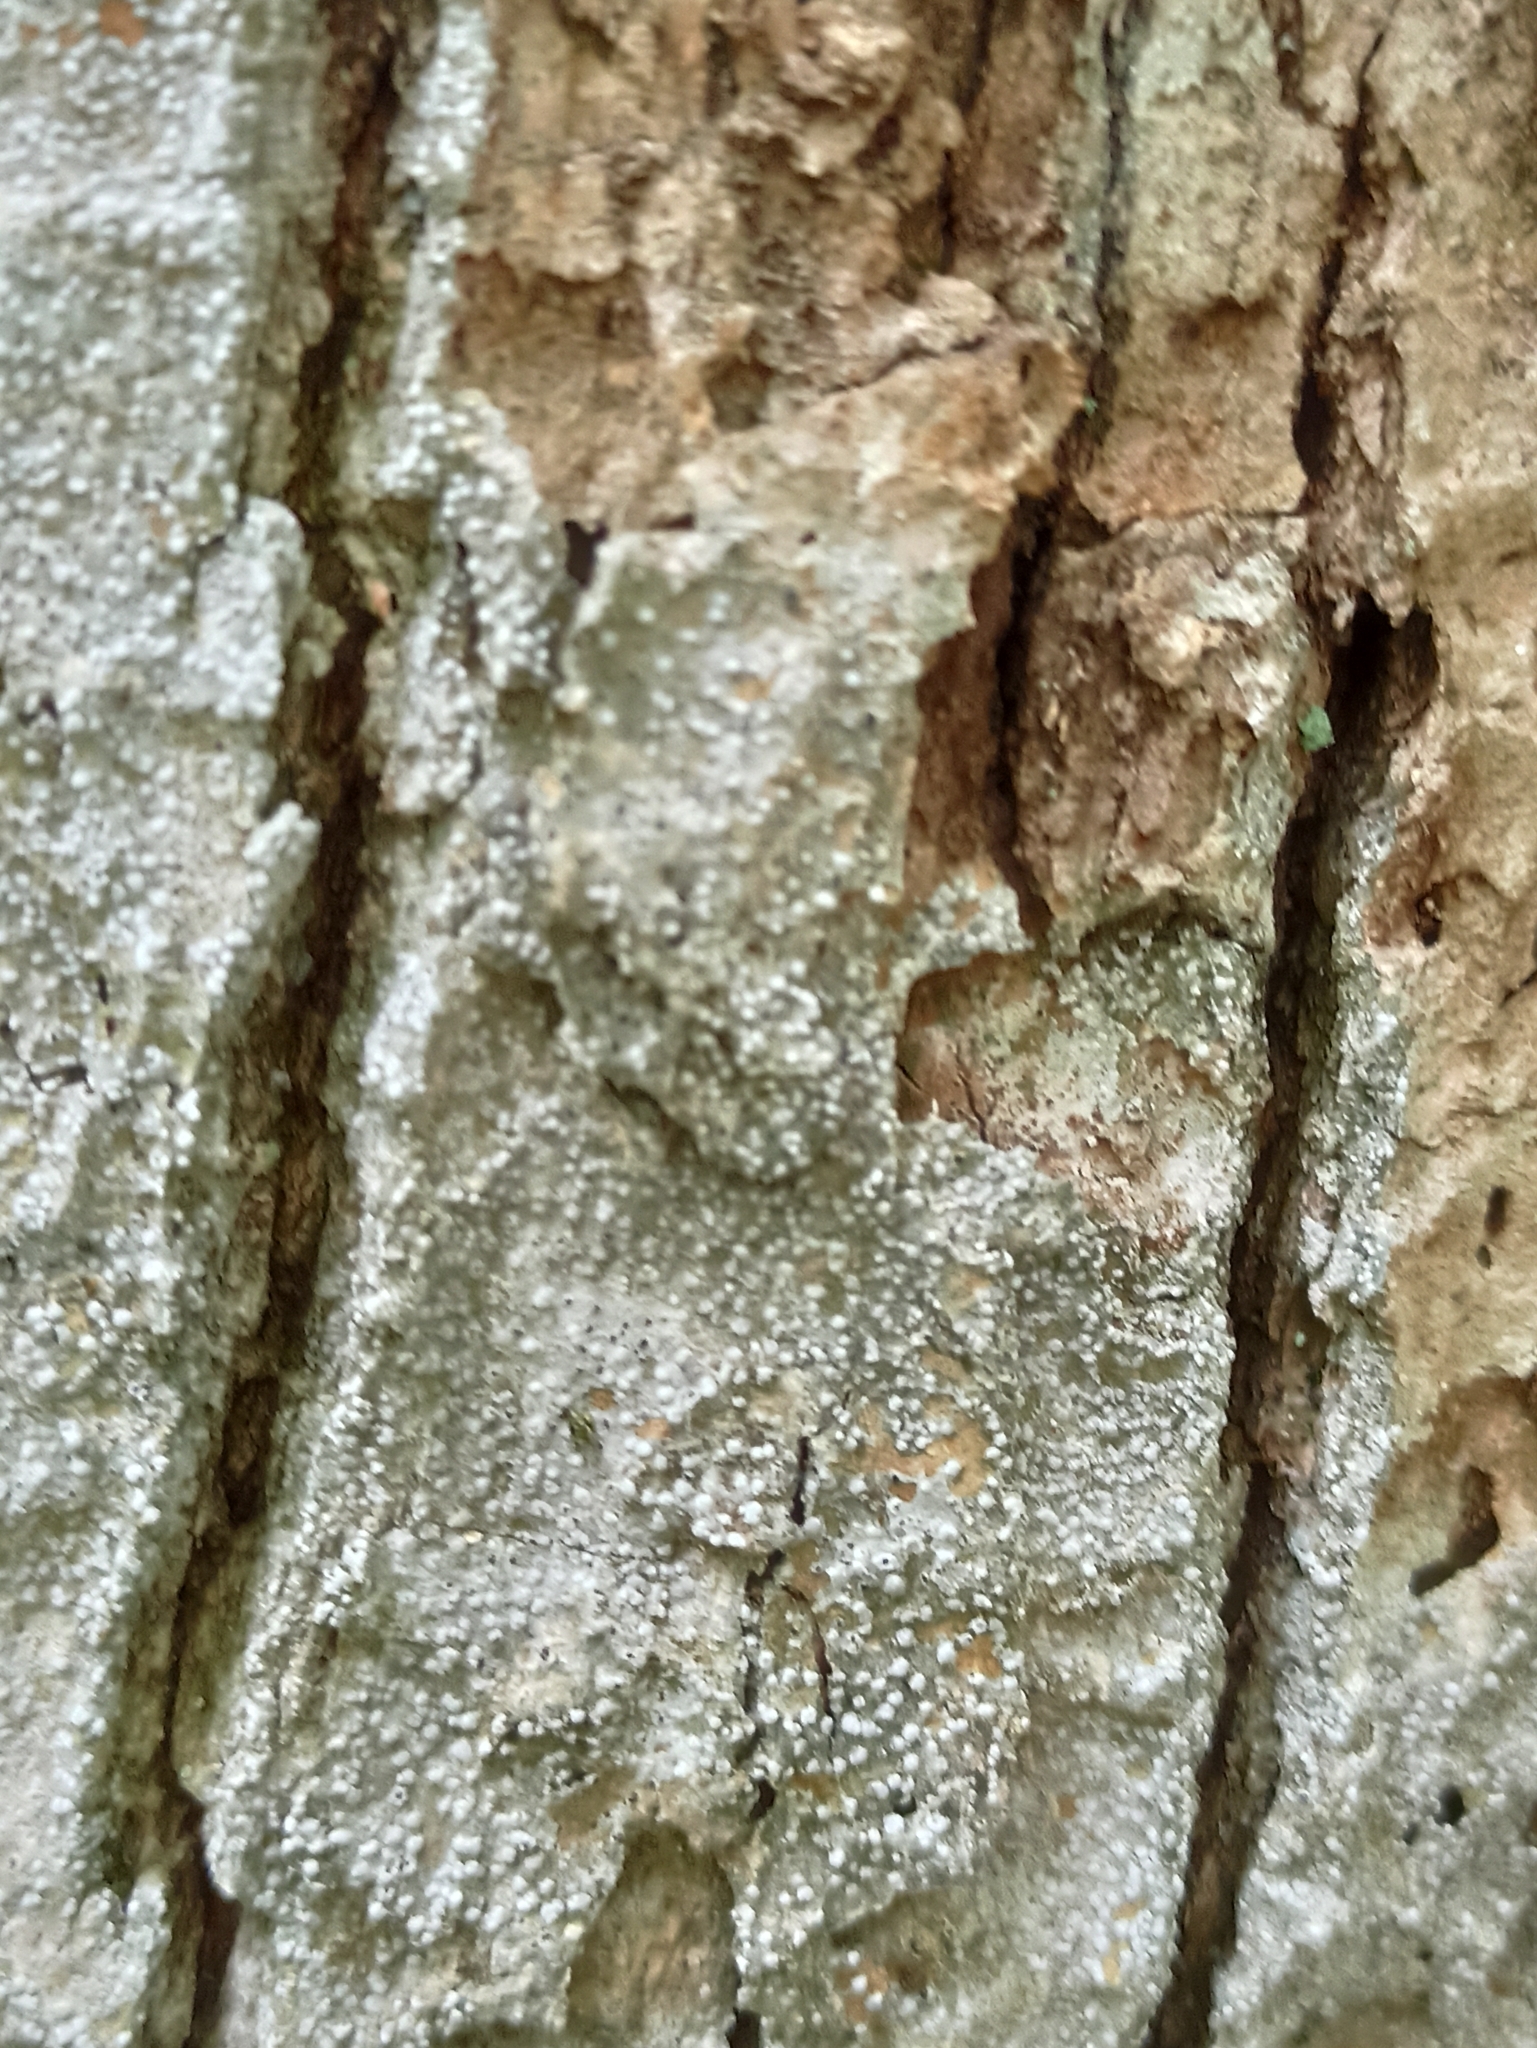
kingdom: Fungi
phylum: Ascomycota
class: Arthoniomycetes
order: Arthoniales
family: Arthoniaceae
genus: Inoderma
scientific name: Inoderma byssaceum
